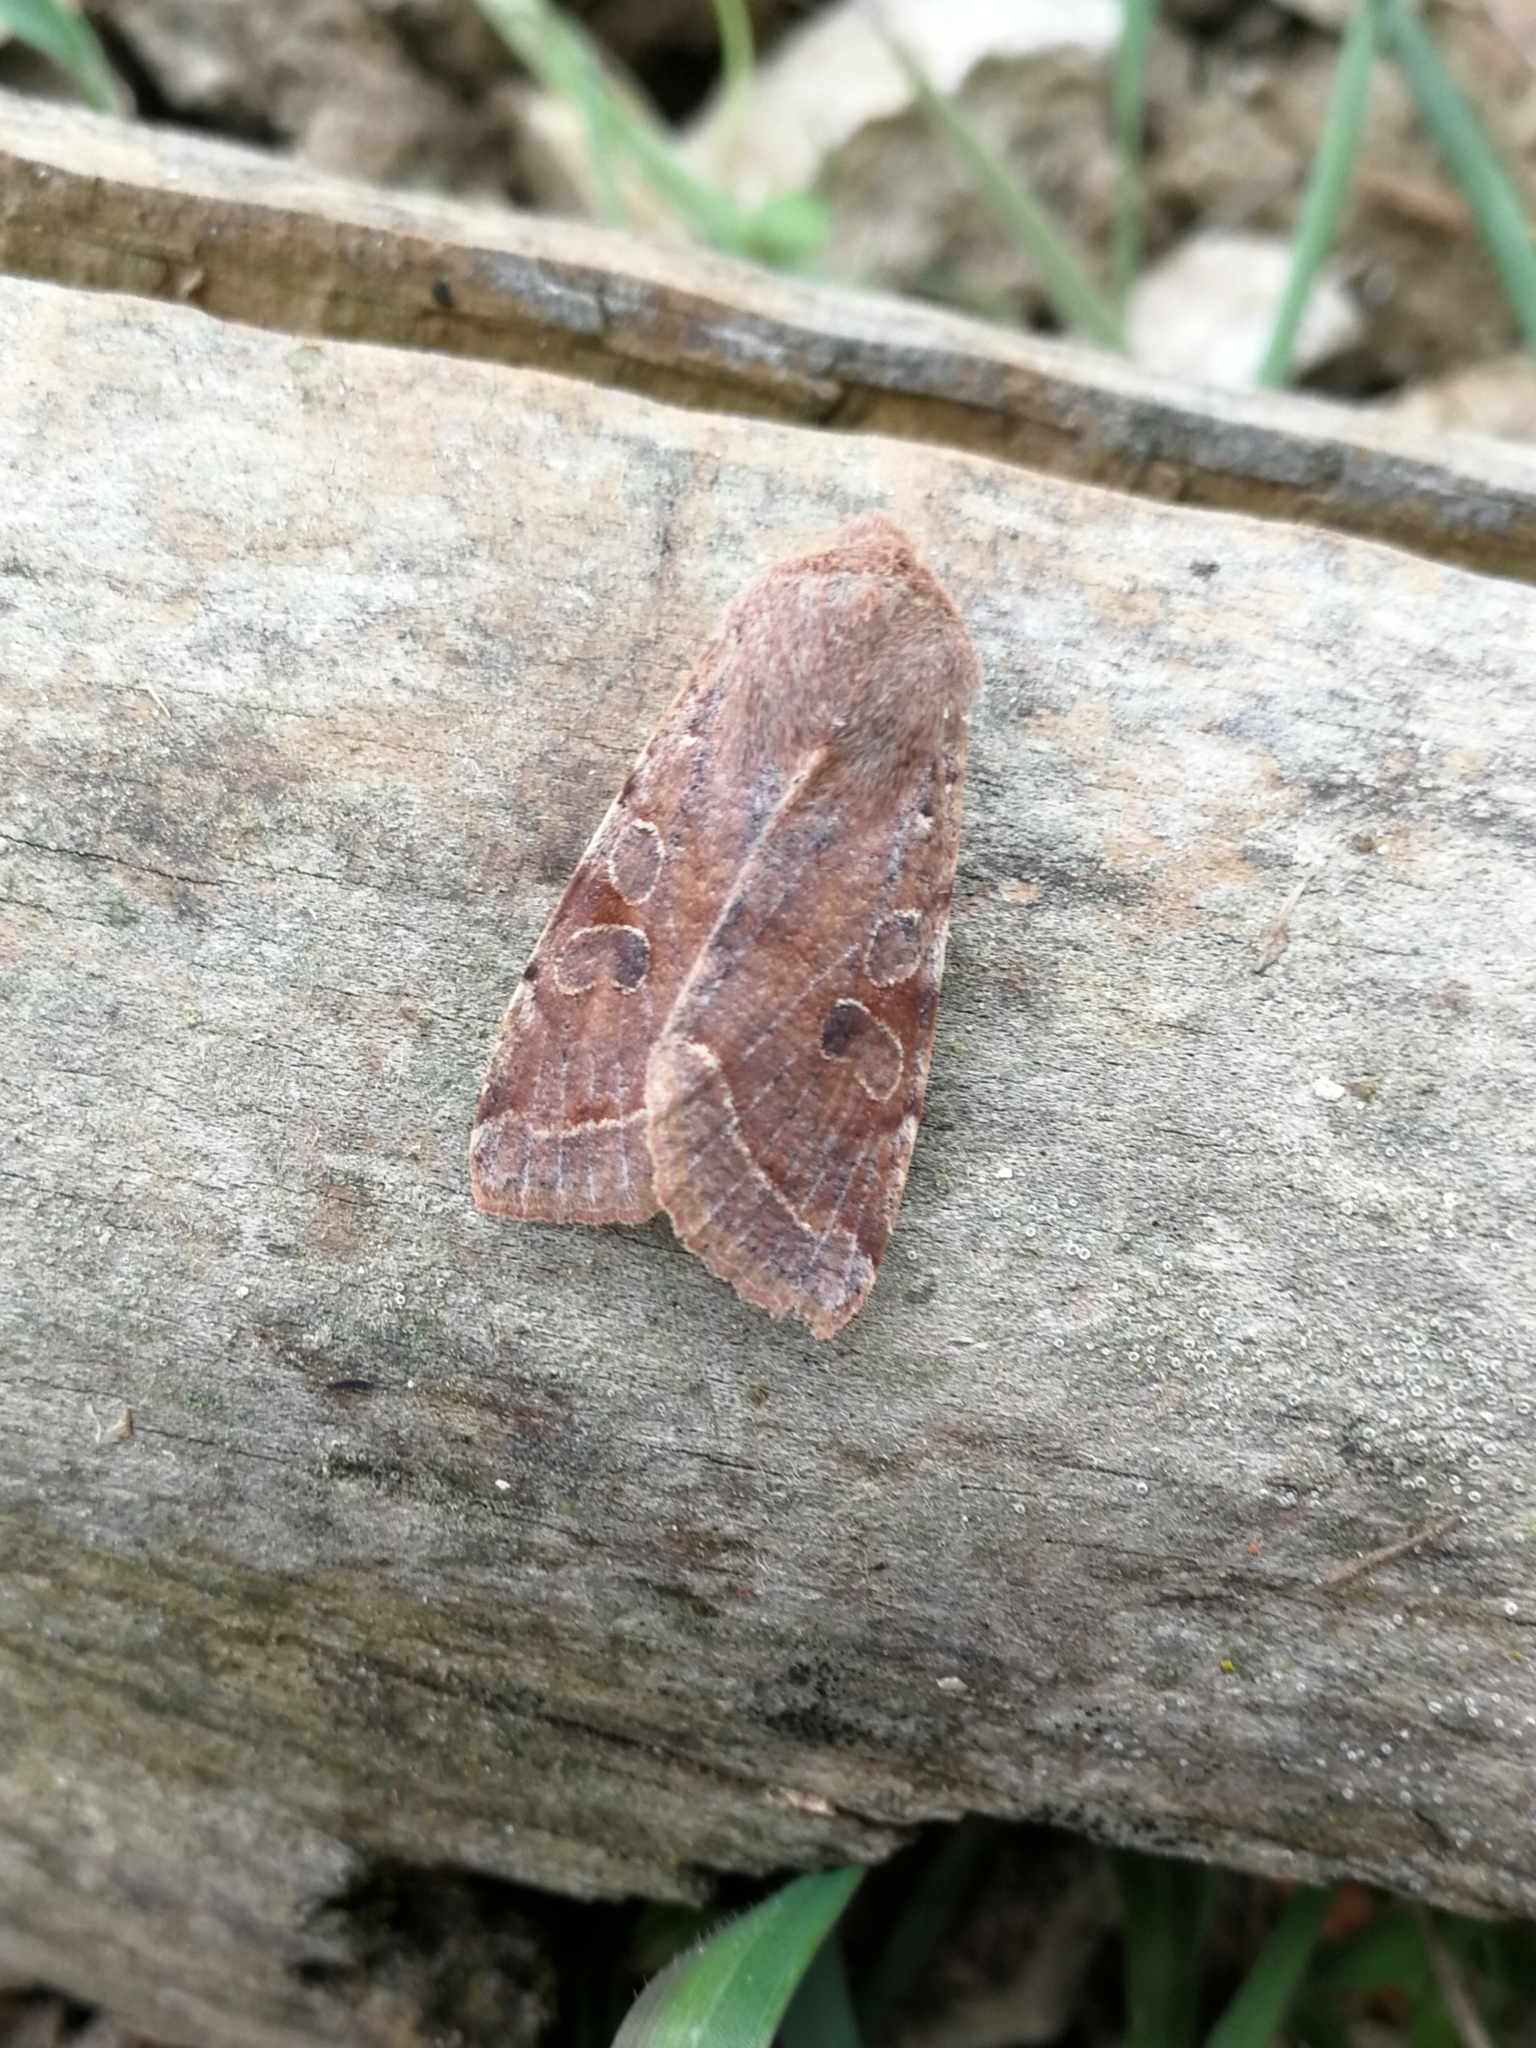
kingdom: Animalia
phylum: Arthropoda
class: Insecta
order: Lepidoptera
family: Noctuidae
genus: Orthosia
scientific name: Orthosia incerta
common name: Clouded drab
